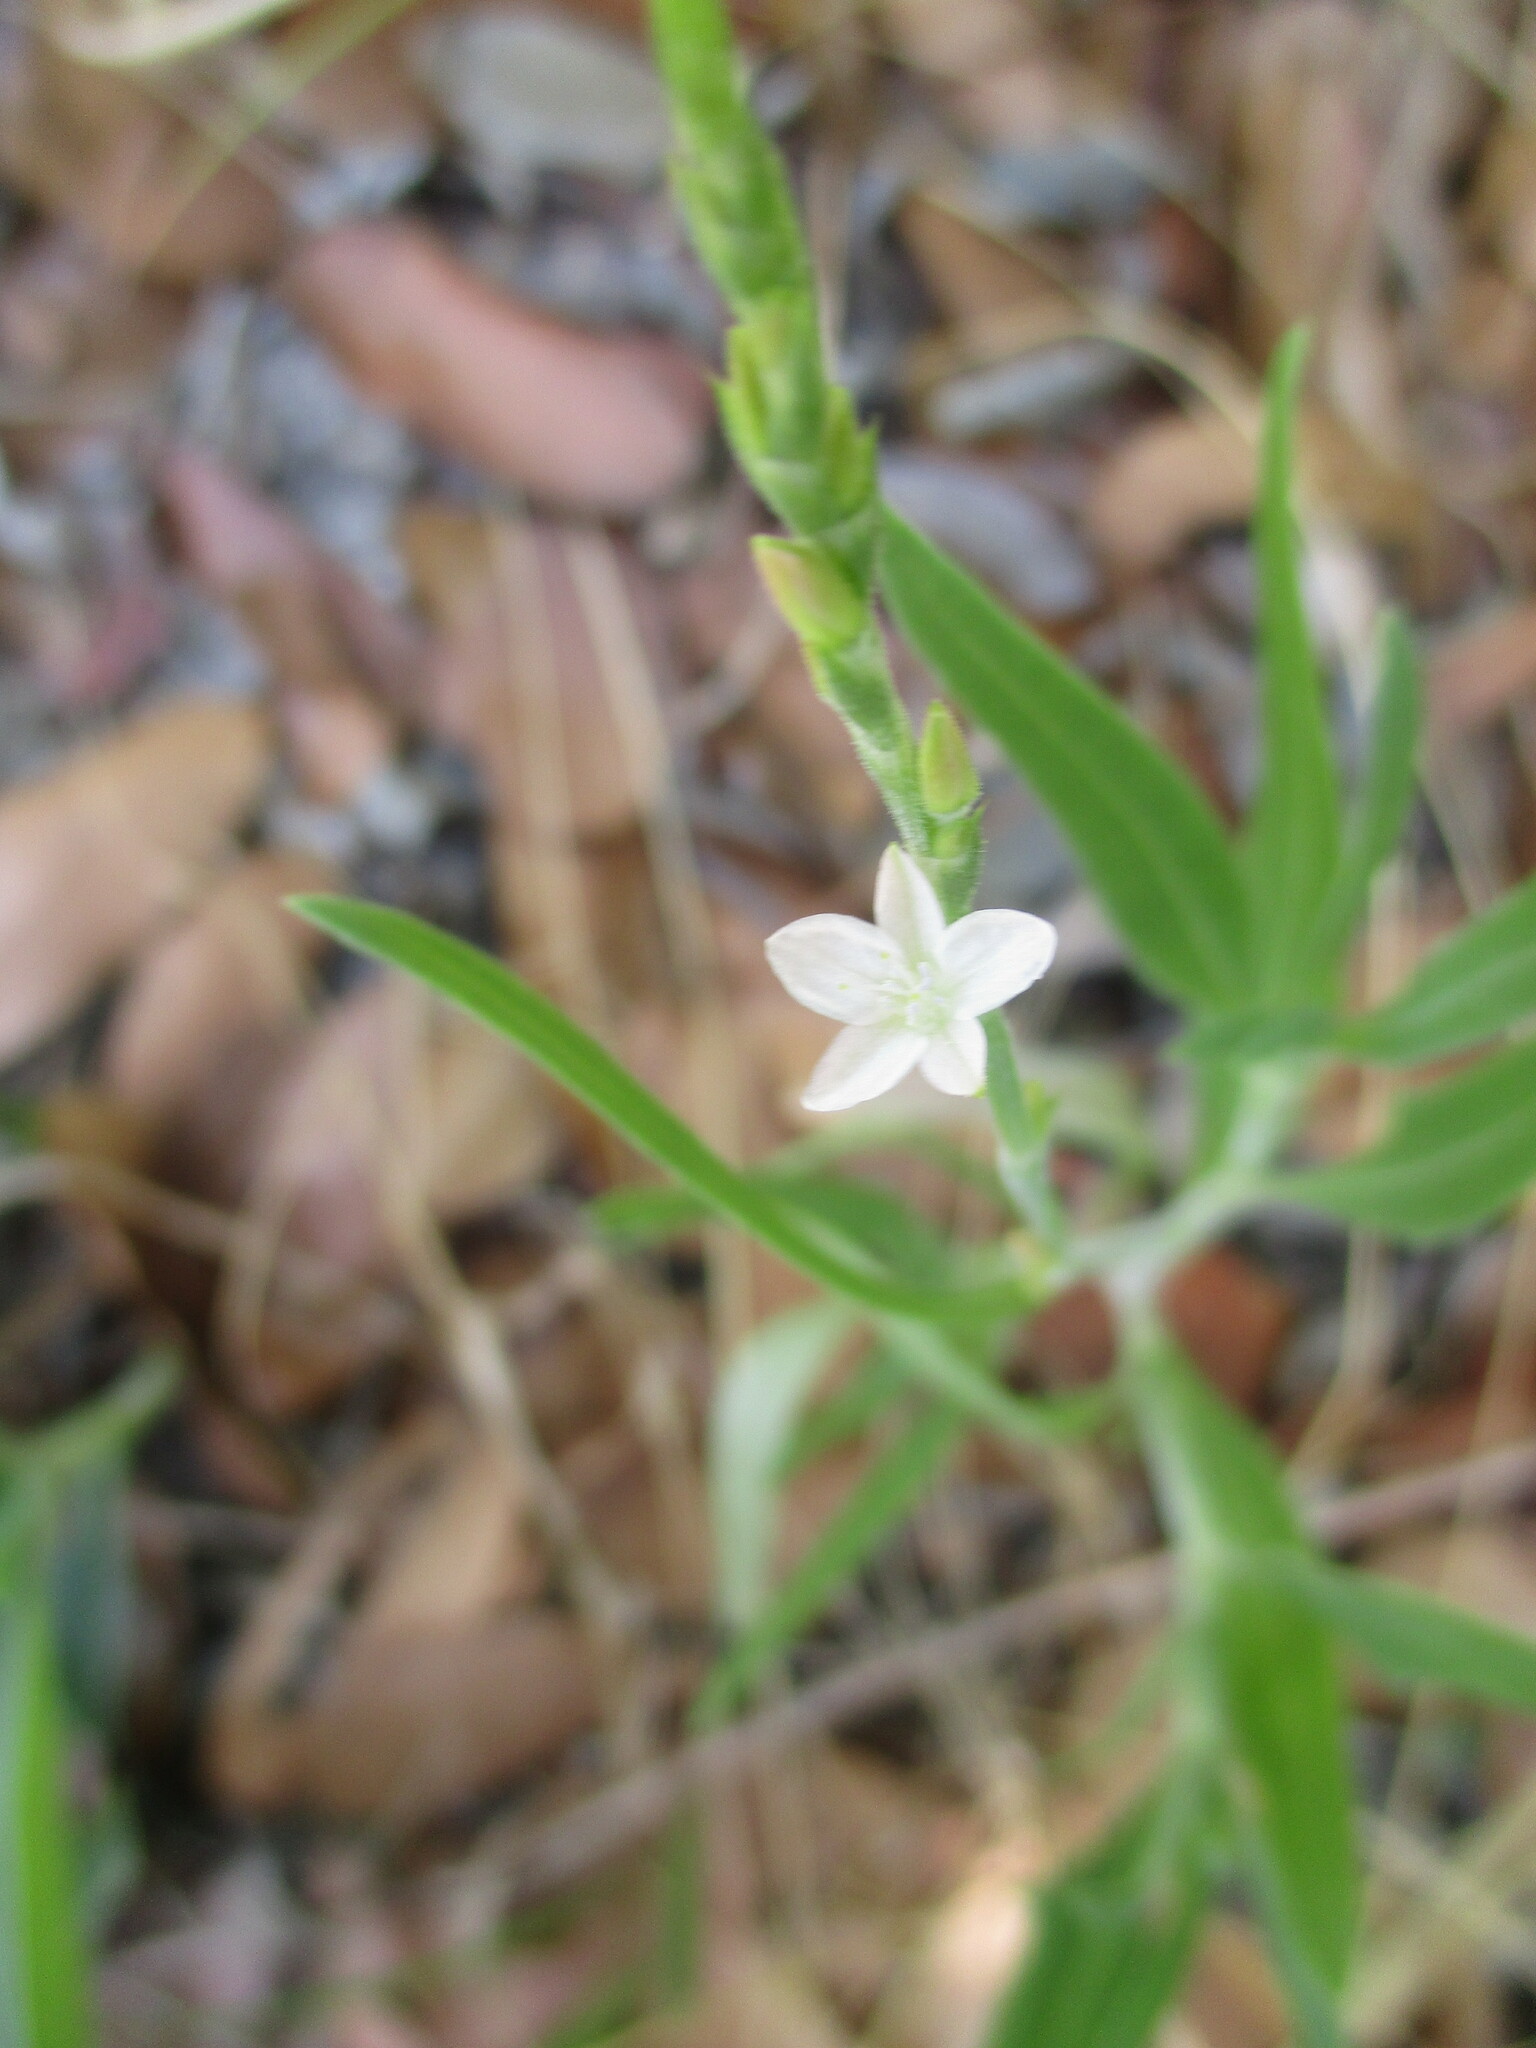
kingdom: Plantae
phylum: Tracheophyta
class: Magnoliopsida
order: Caryophyllales
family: Polygonaceae
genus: Oxygonum
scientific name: Oxygonum alatum
